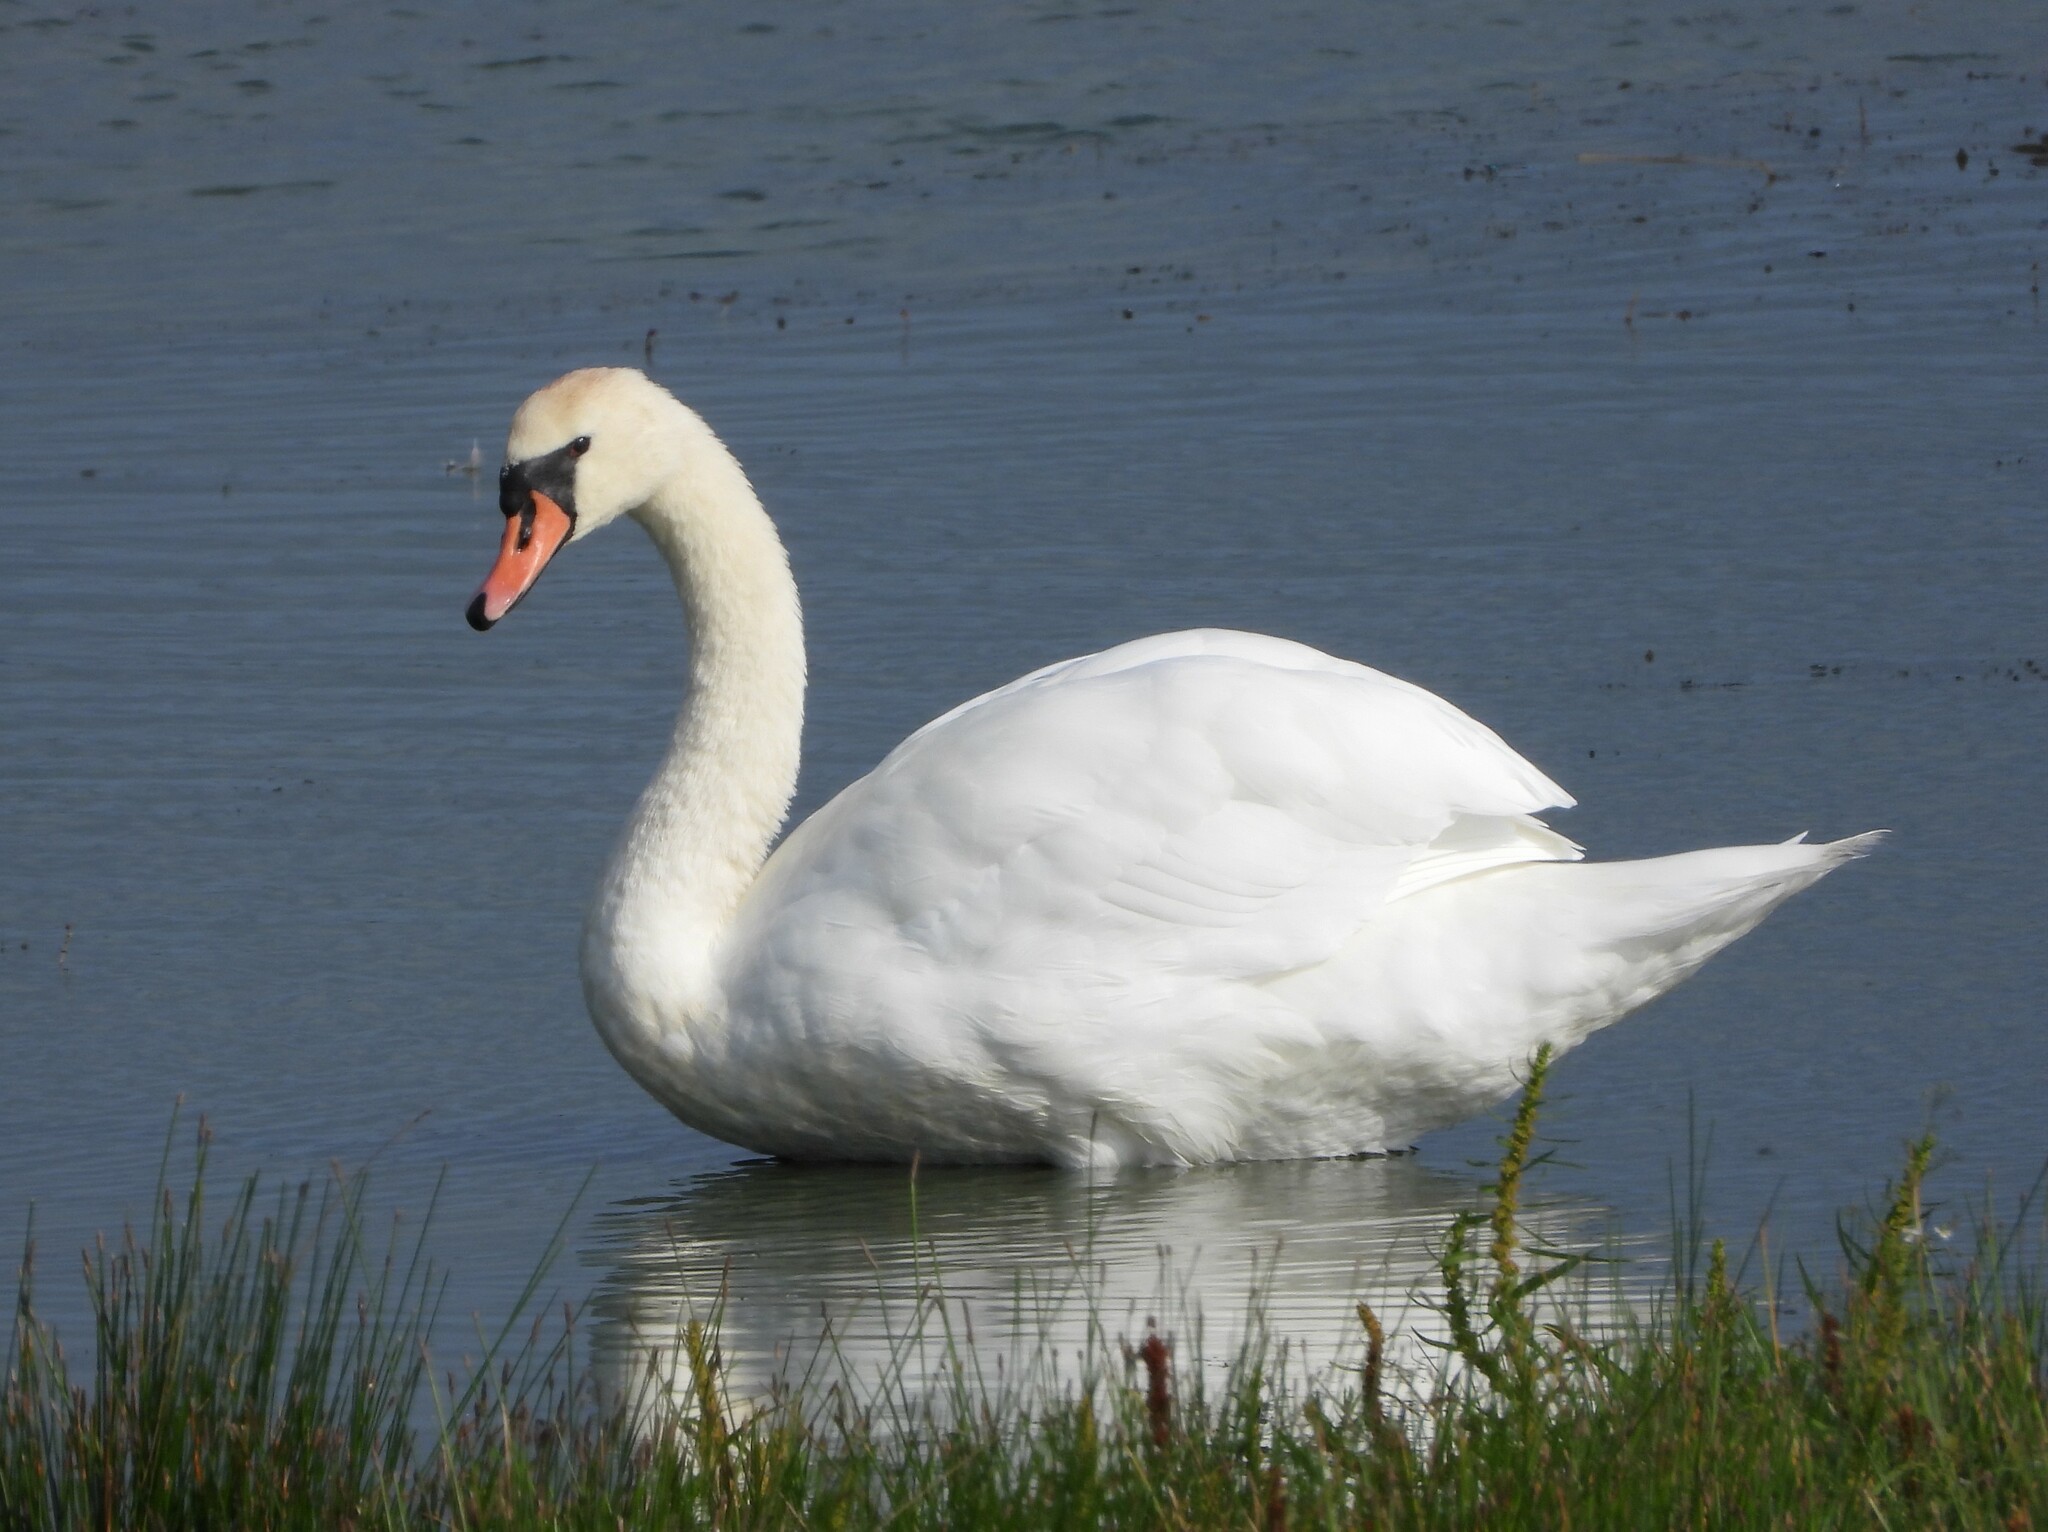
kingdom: Animalia
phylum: Chordata
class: Aves
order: Anseriformes
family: Anatidae
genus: Cygnus
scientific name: Cygnus olor
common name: Mute swan
